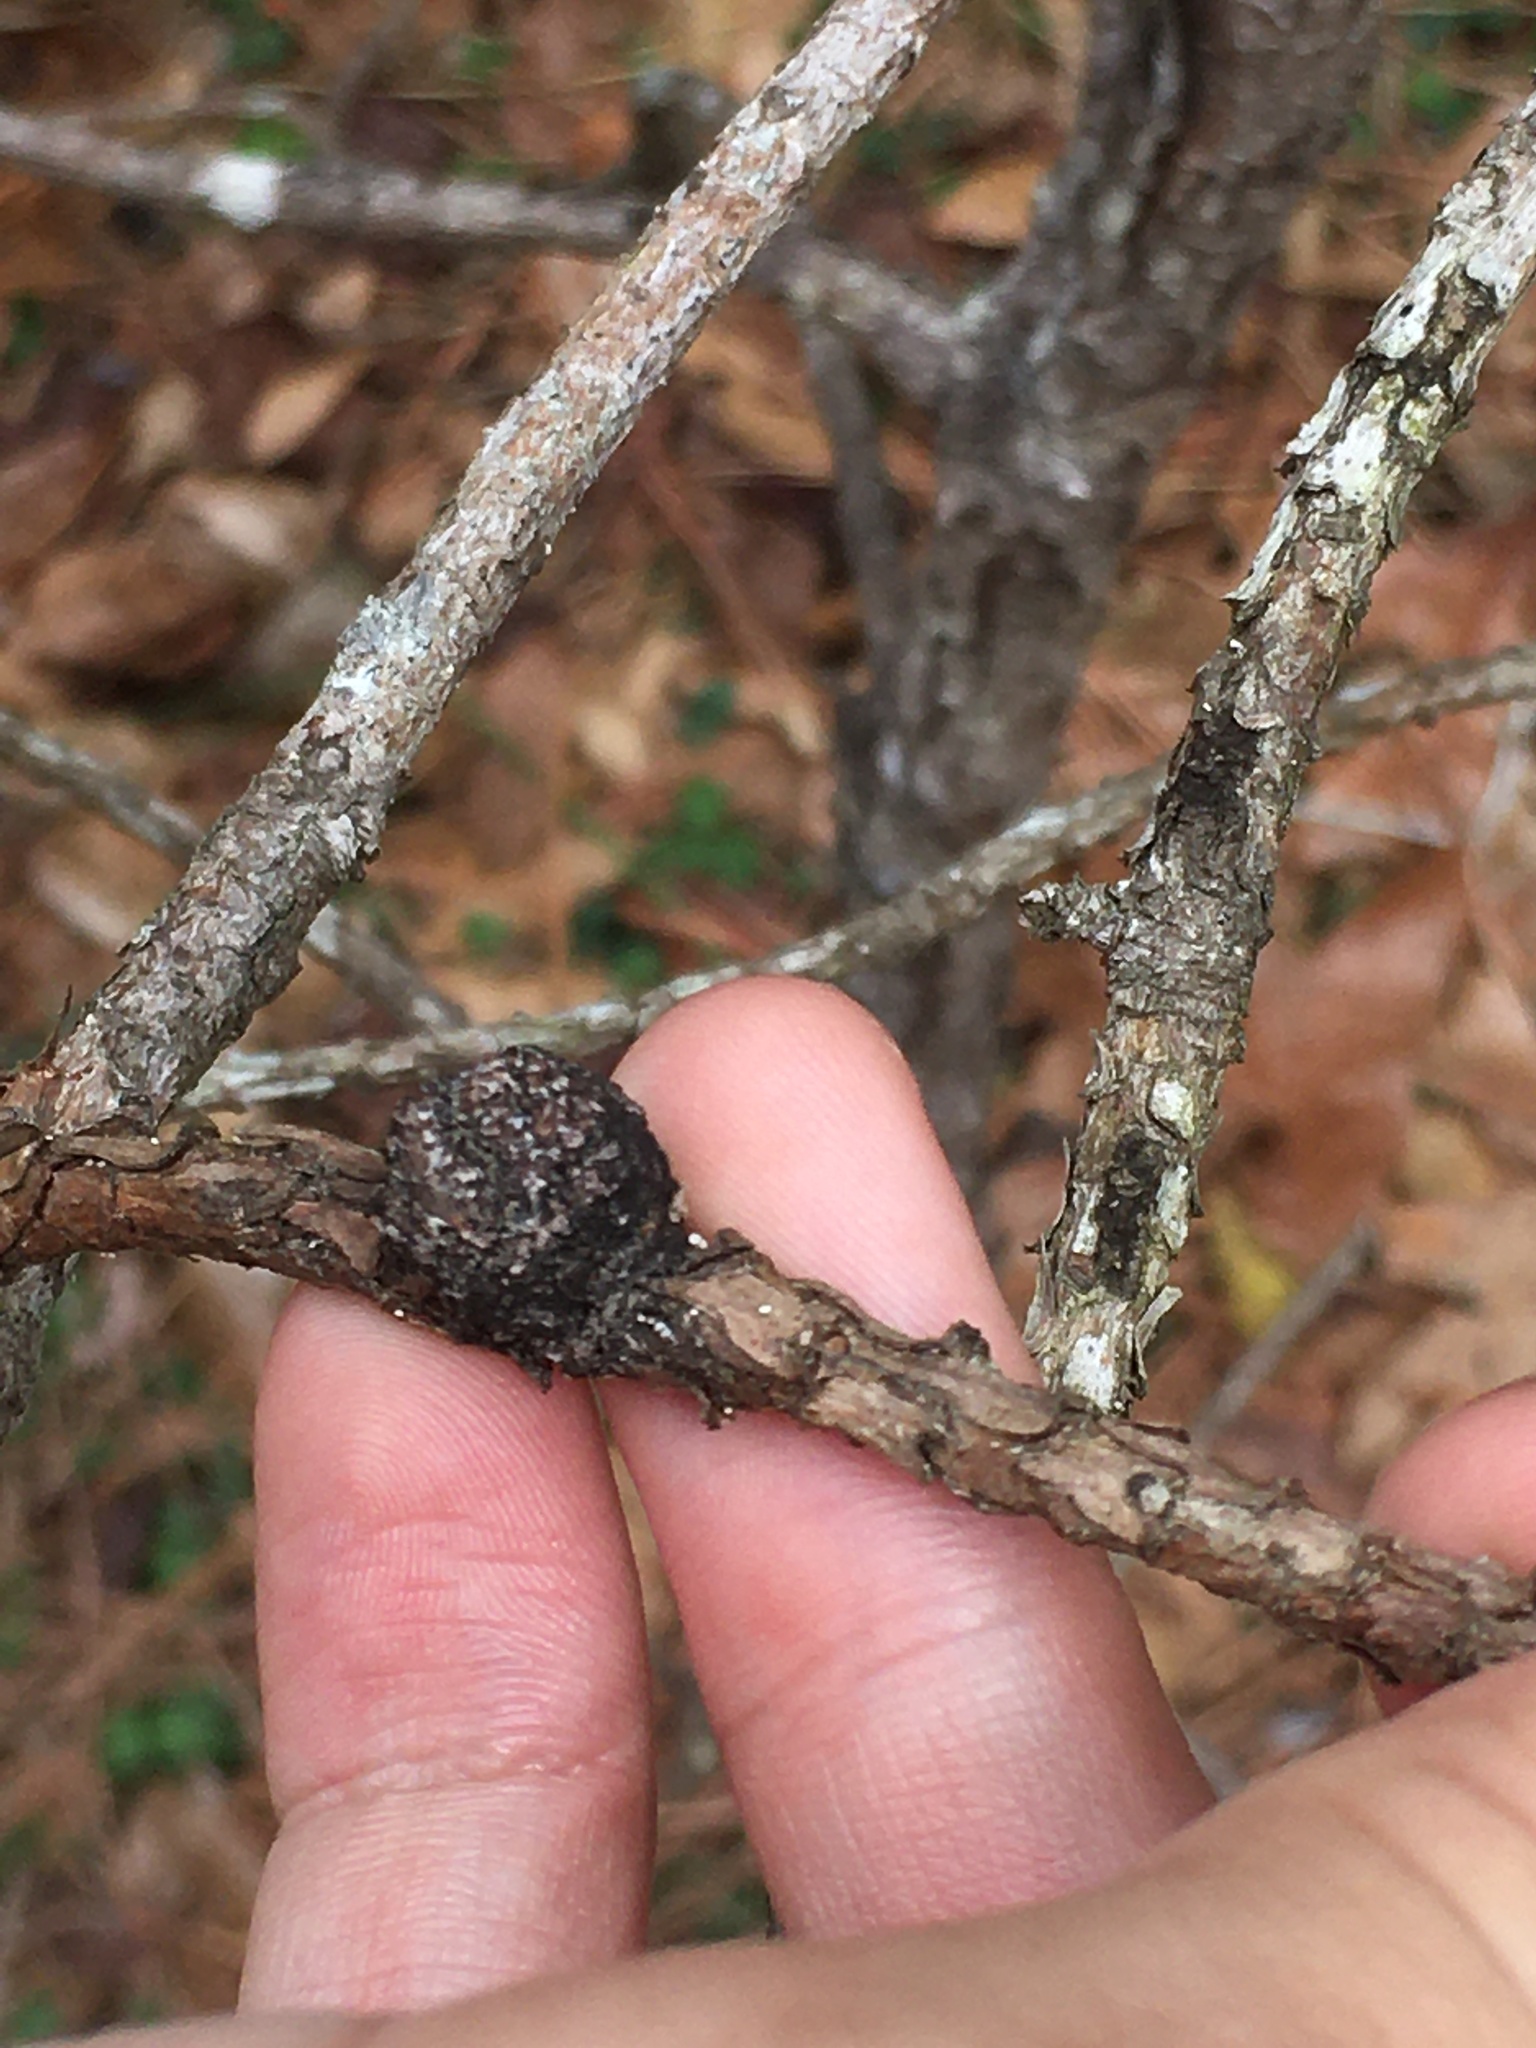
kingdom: Fungi
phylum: Basidiomycota
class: Pucciniomycetes
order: Pucciniales
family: Cronartiaceae
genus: Cronartium
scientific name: Cronartium quercuum
